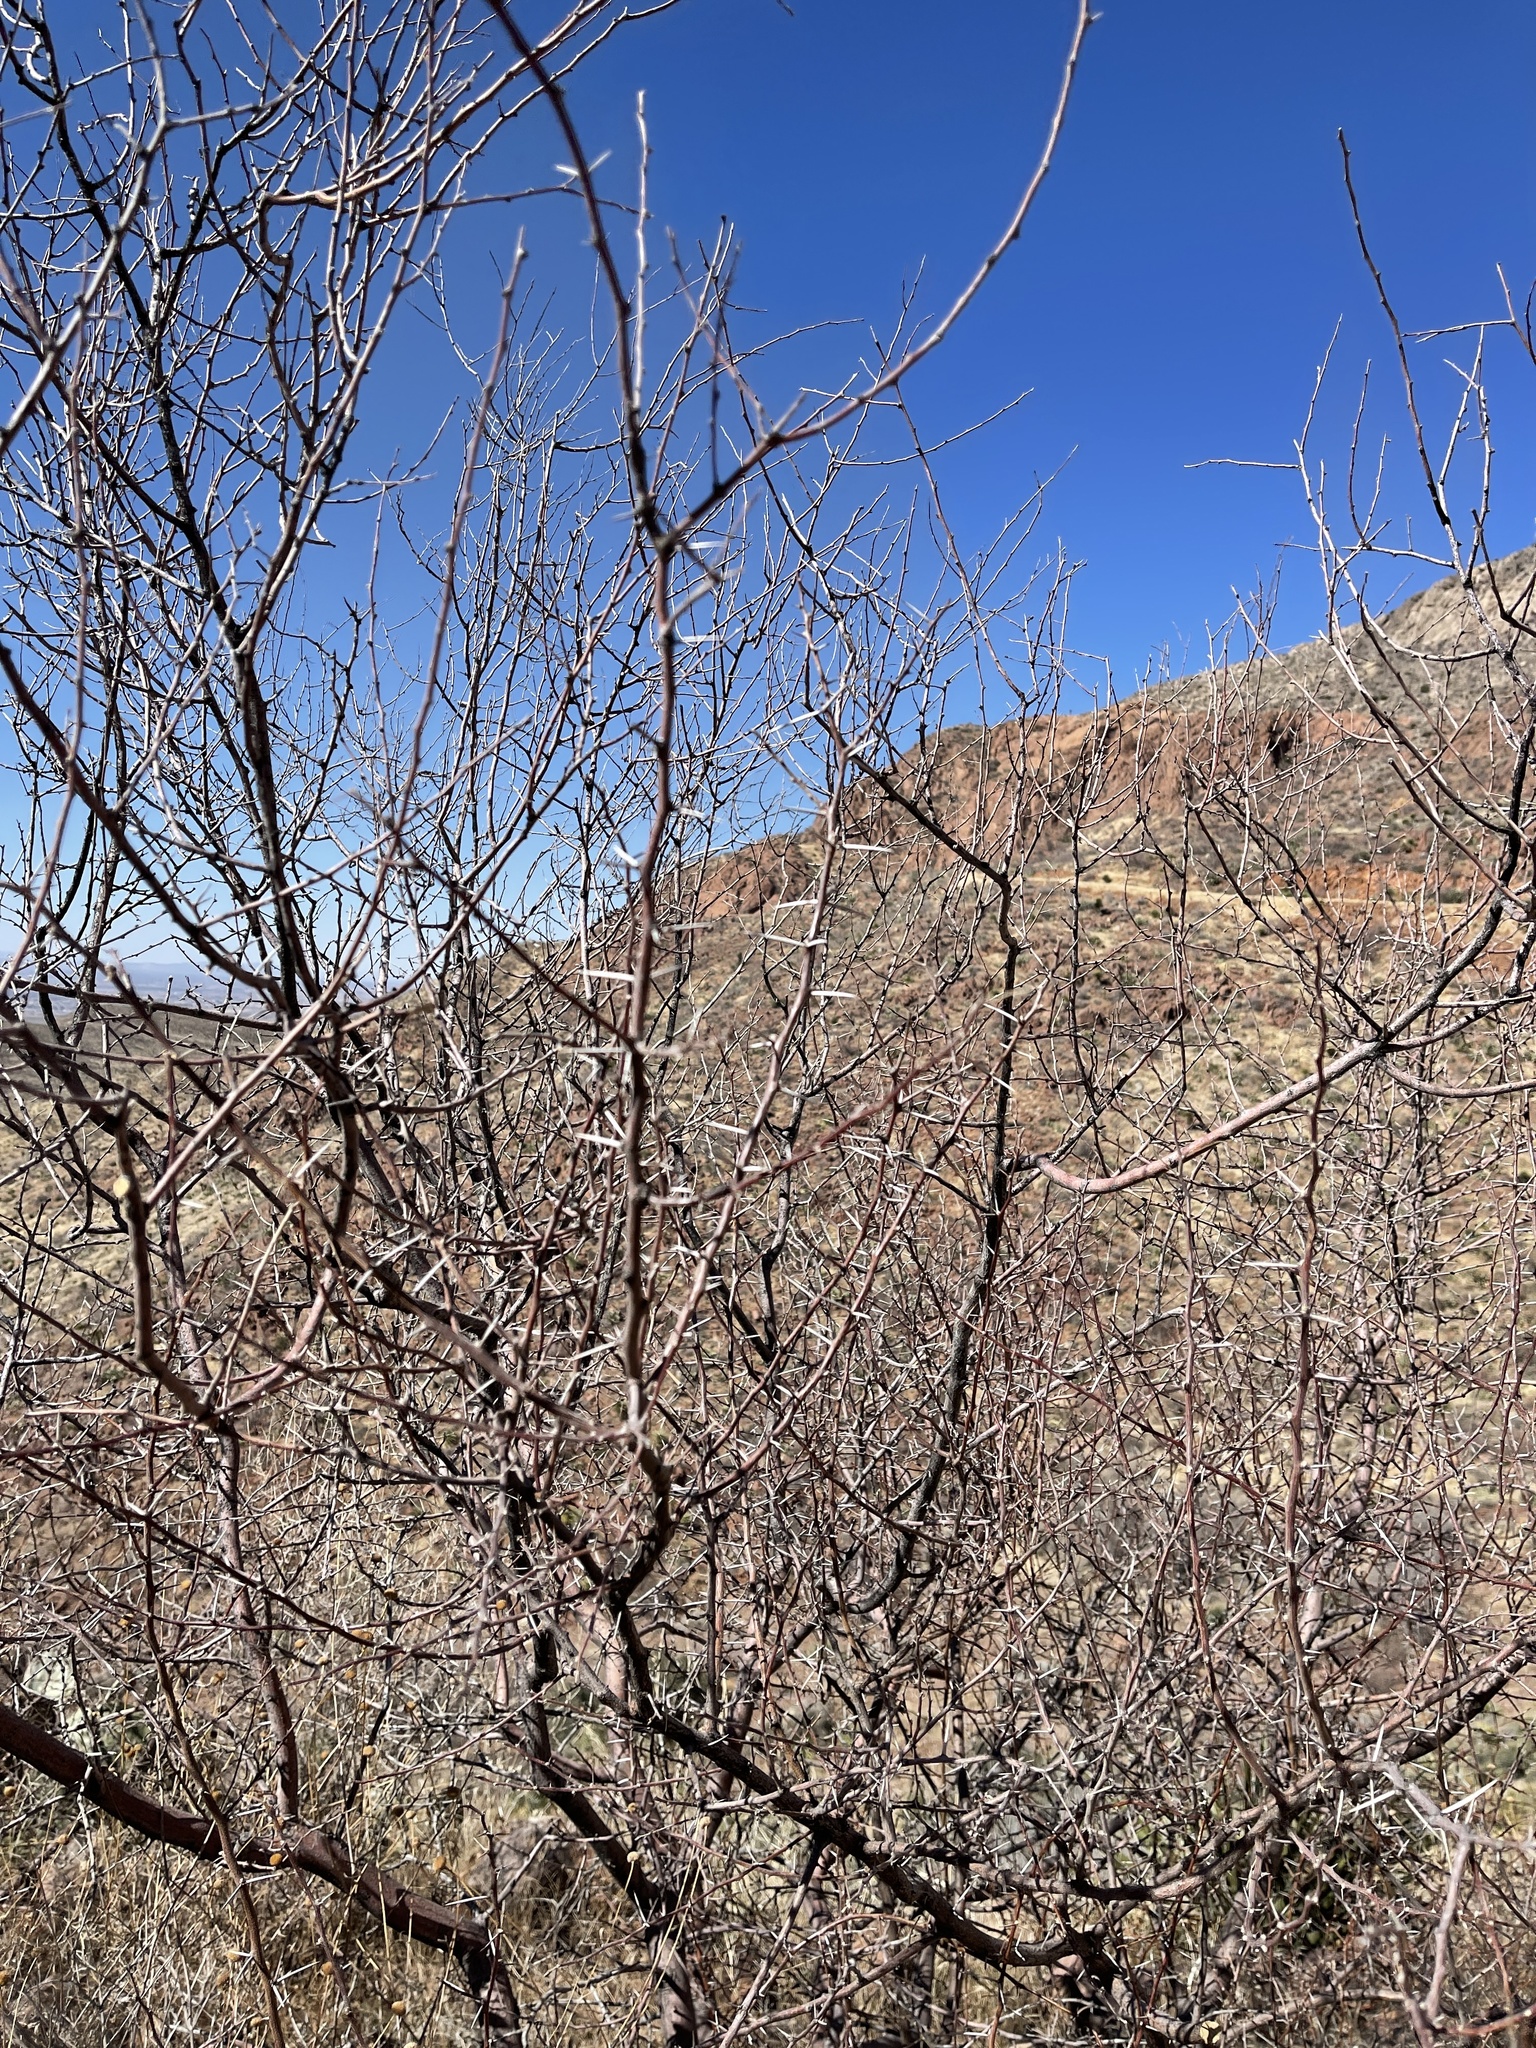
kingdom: Plantae
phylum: Tracheophyta
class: Magnoliopsida
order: Fabales
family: Fabaceae
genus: Vachellia
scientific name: Vachellia constricta
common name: Mescat acacia
